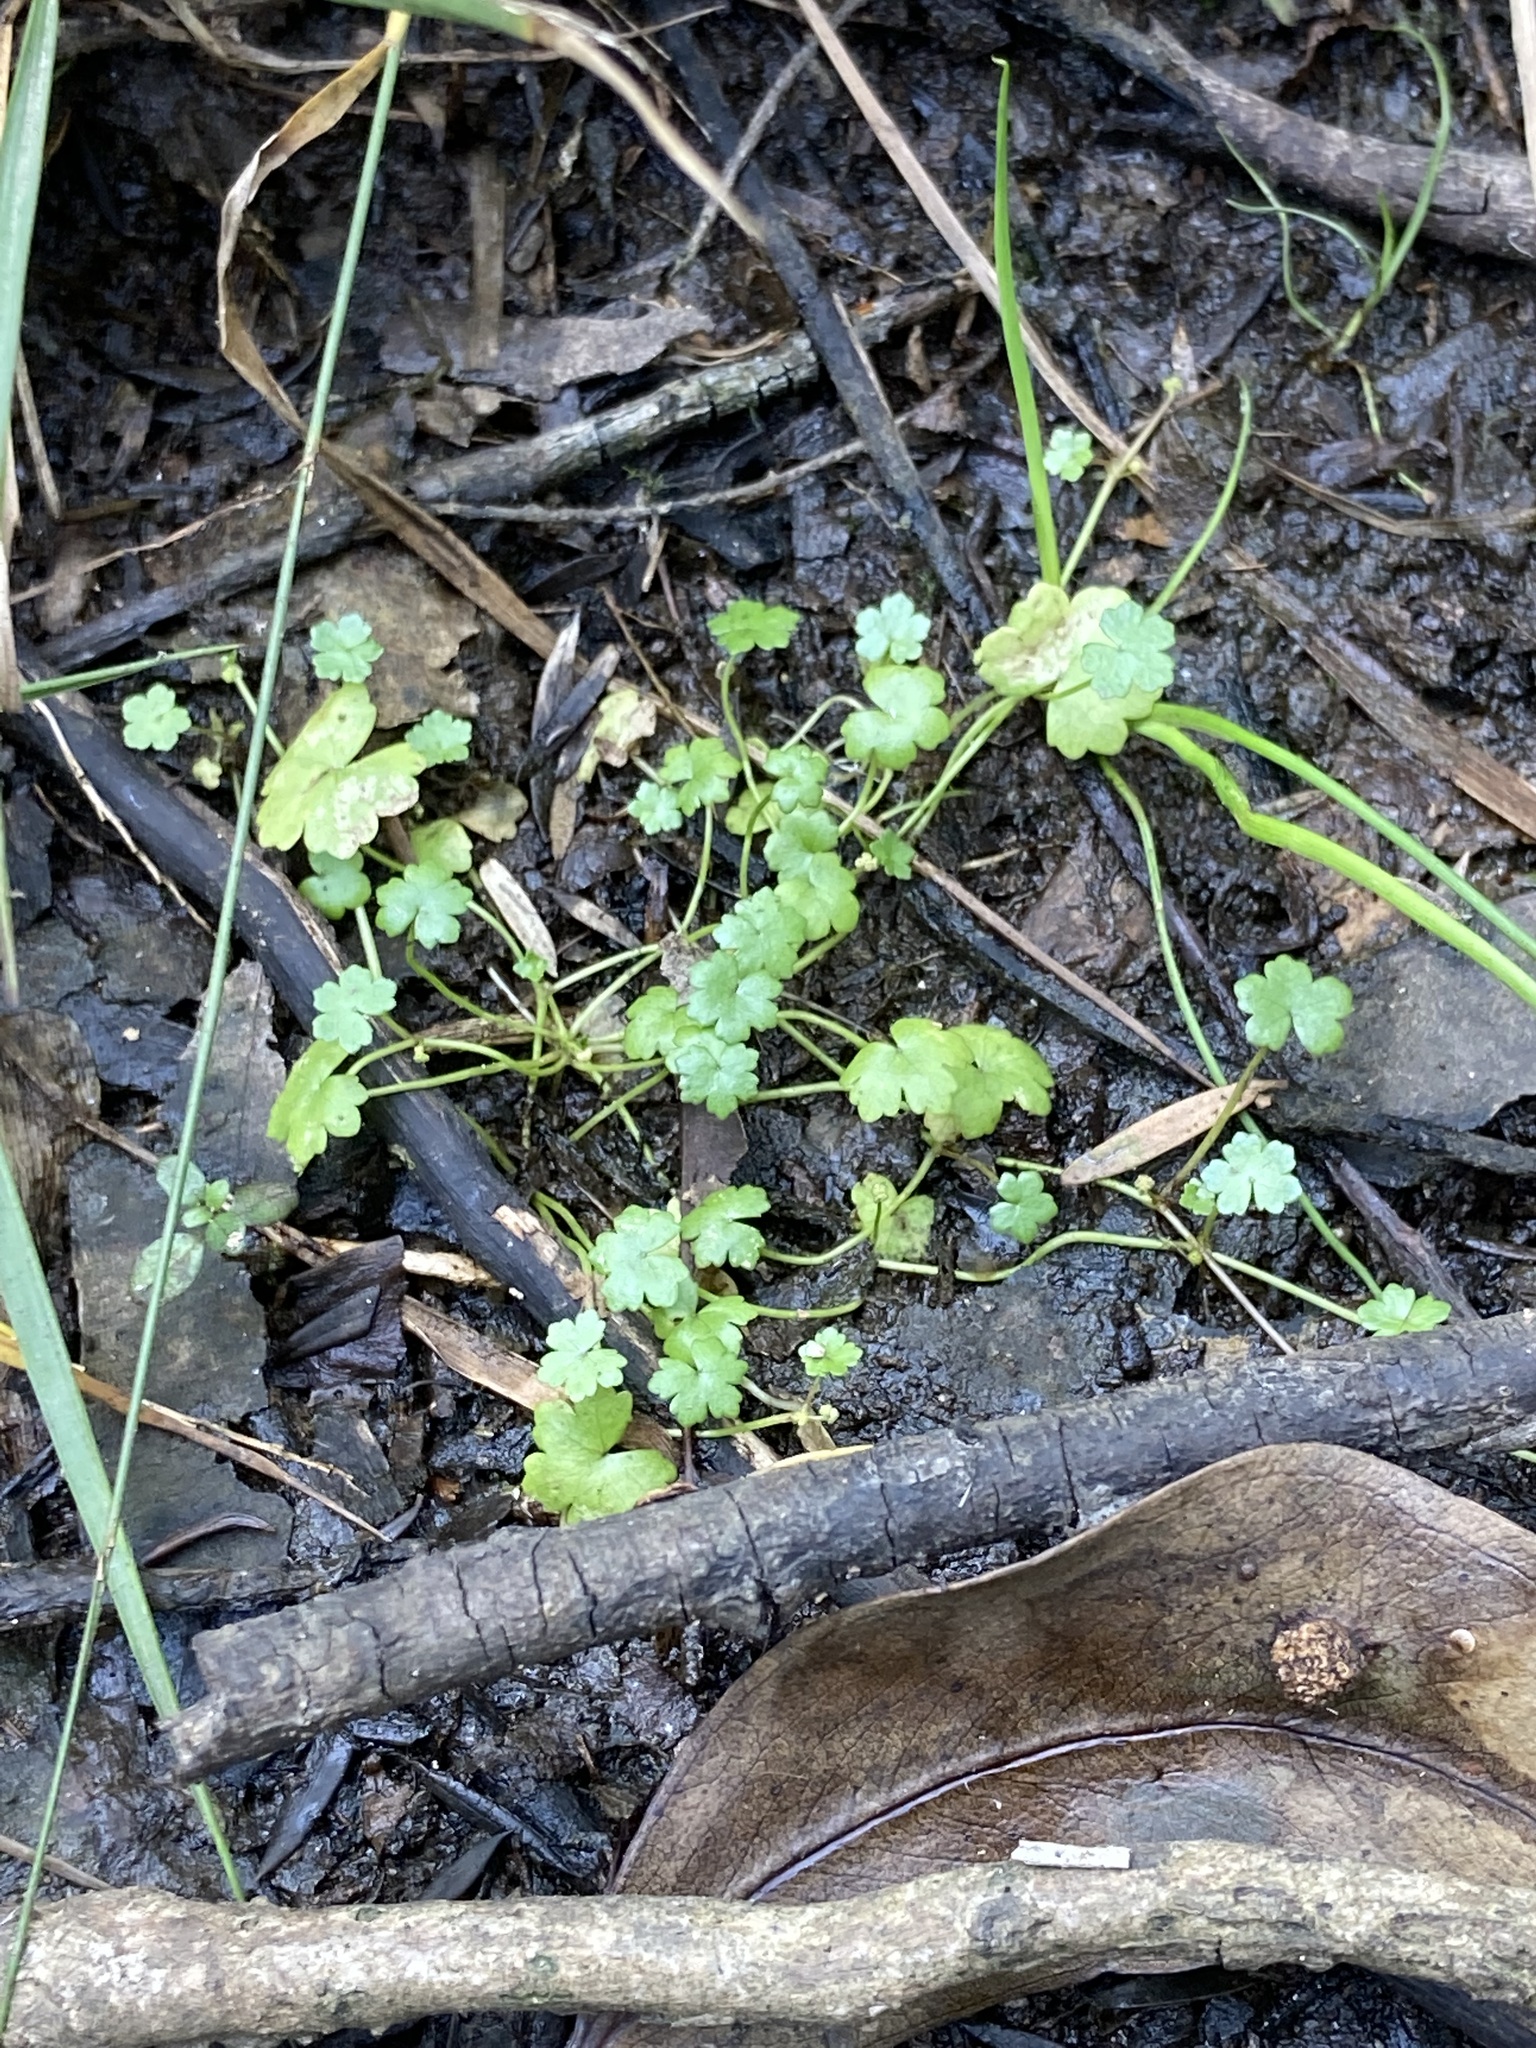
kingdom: Plantae
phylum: Tracheophyta
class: Magnoliopsida
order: Apiales
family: Araliaceae
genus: Hydrocotyle
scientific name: Hydrocotyle sibthorpioides
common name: Lawn marshpennywort
